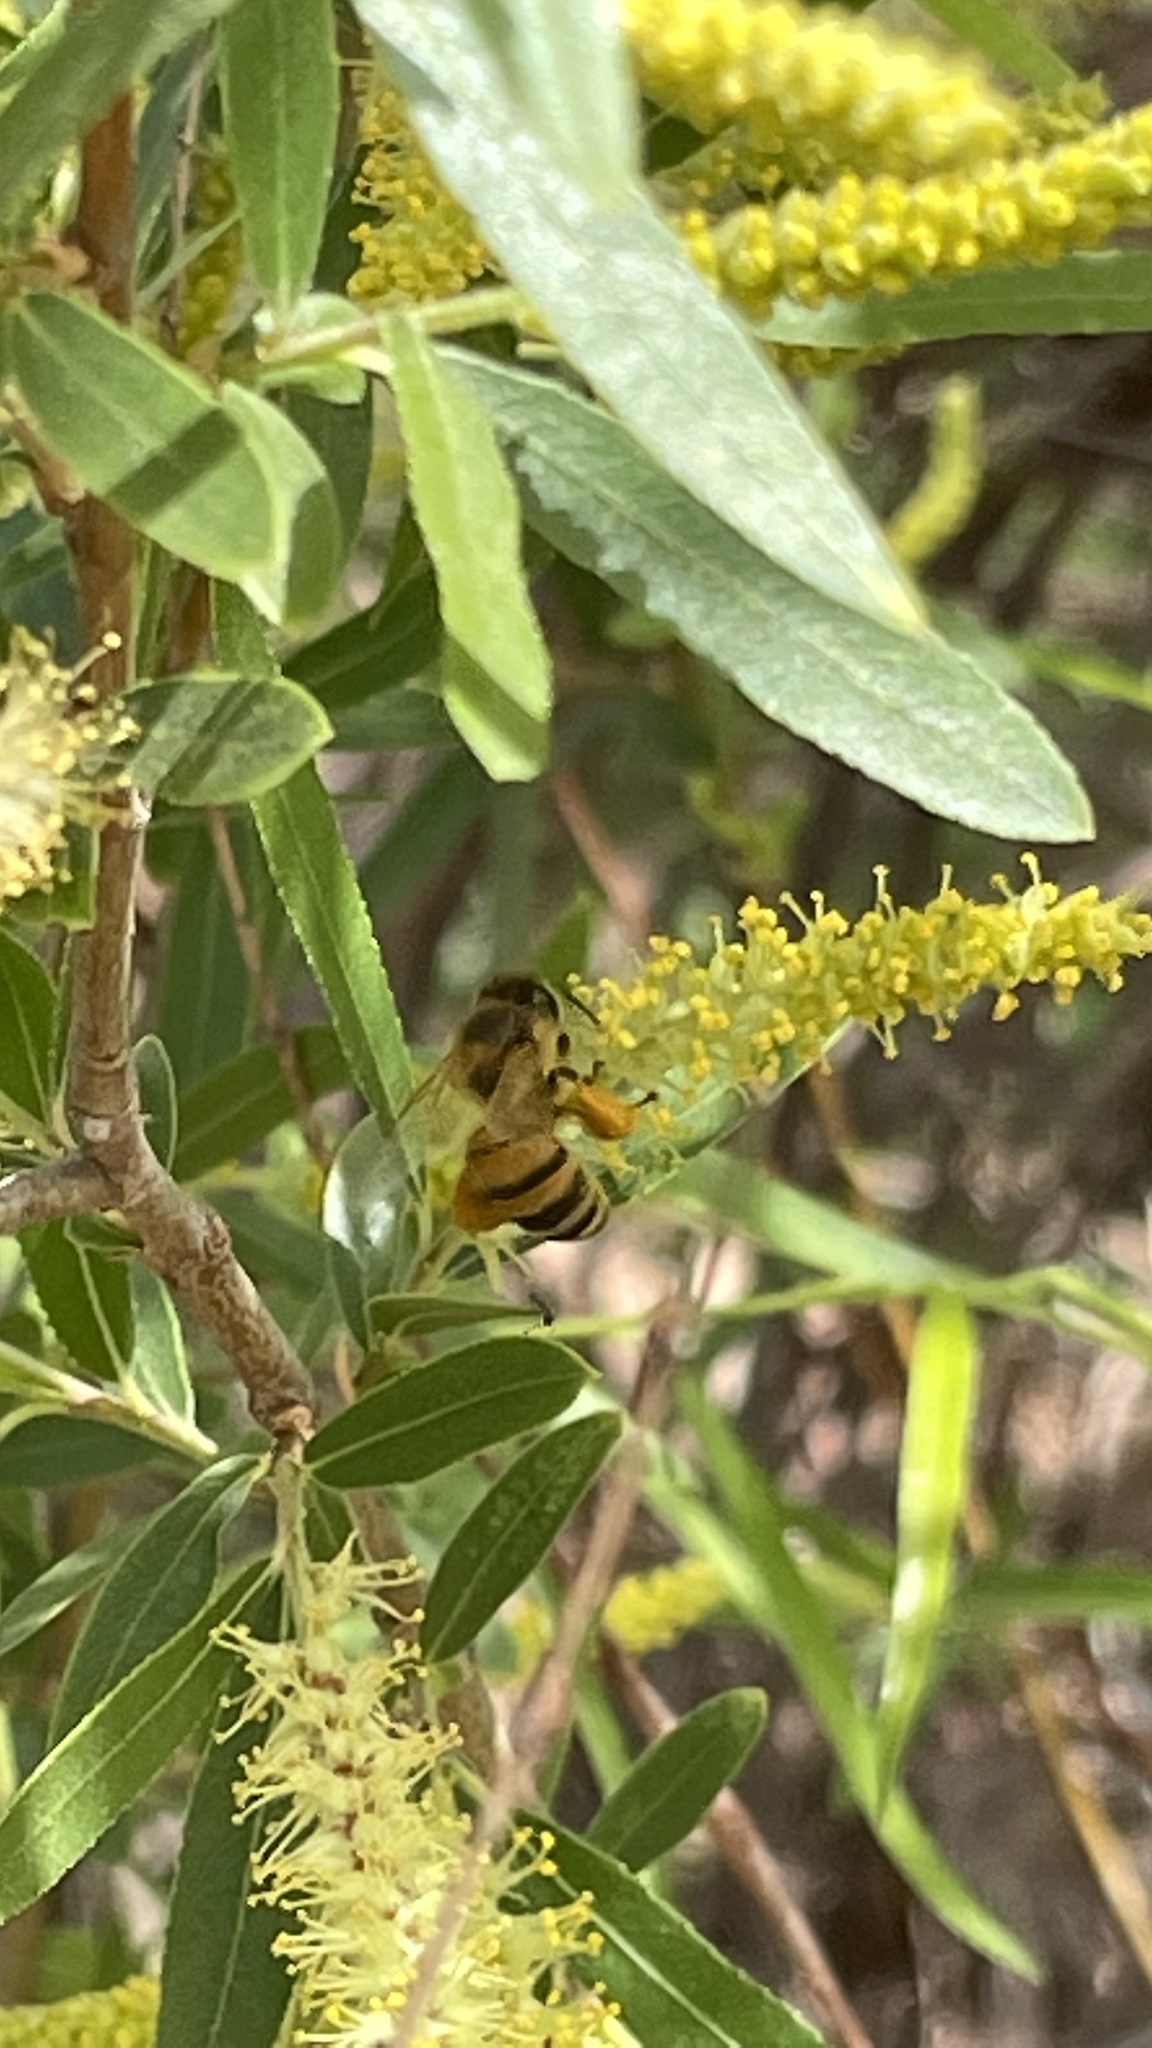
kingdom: Animalia
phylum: Arthropoda
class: Insecta
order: Hymenoptera
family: Apidae
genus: Apis
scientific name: Apis mellifera
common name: Honey bee
